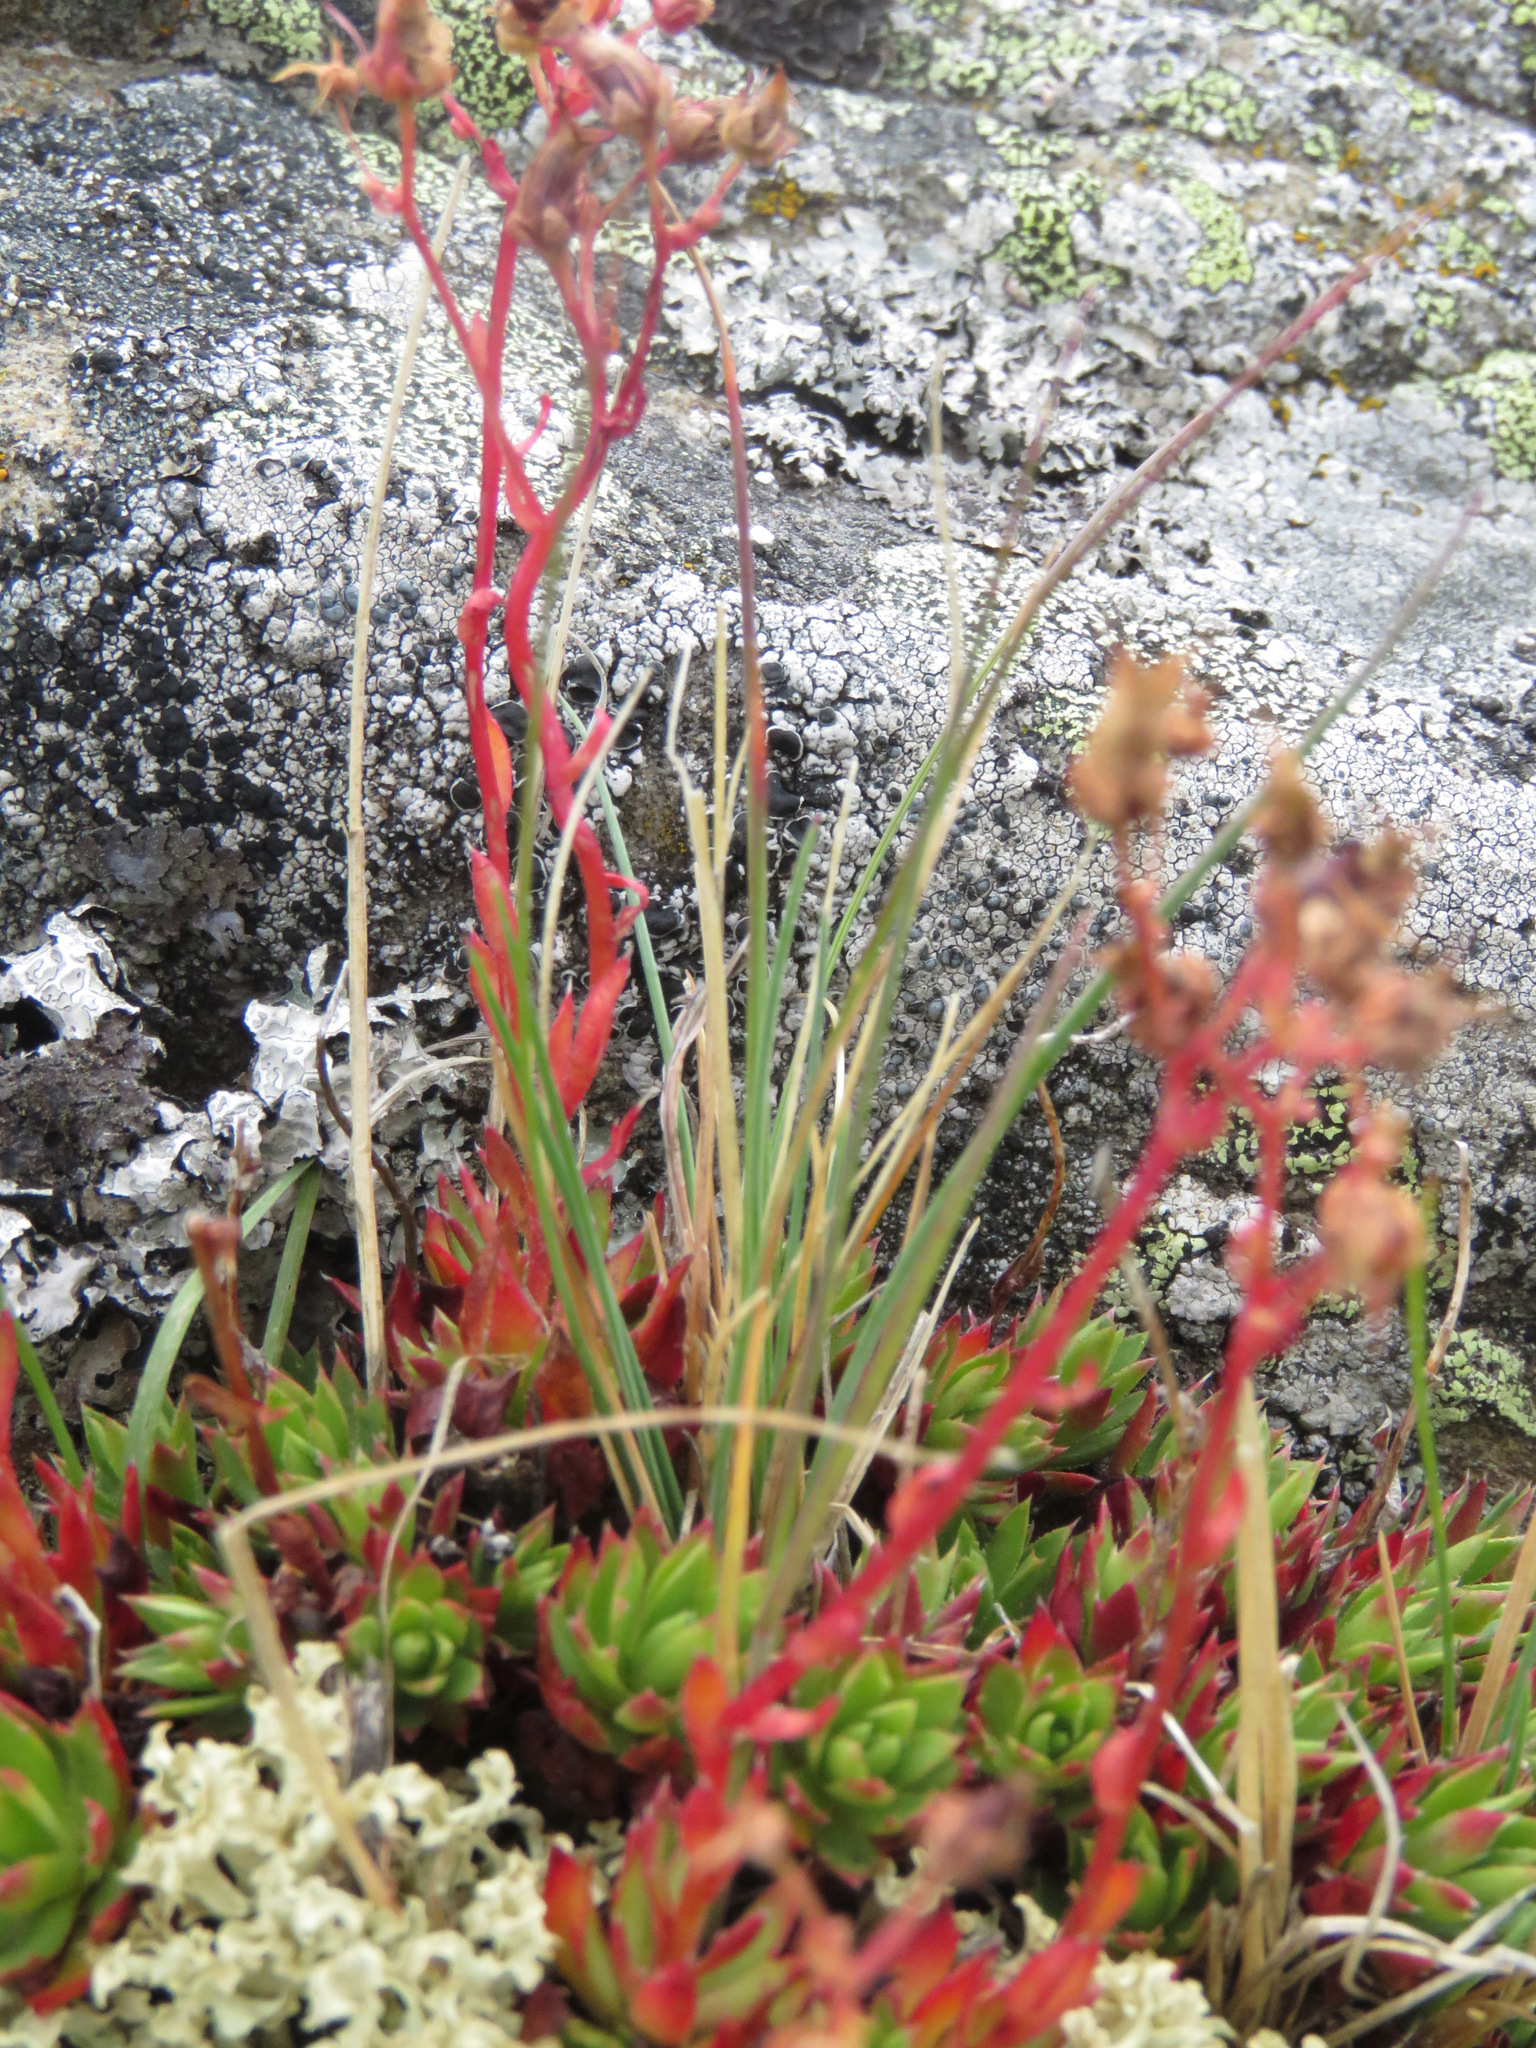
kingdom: Plantae
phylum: Tracheophyta
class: Magnoliopsida
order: Saxifragales
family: Saxifragaceae
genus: Saxifraga
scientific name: Saxifraga tricuspidata
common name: Prickly saxifrage
